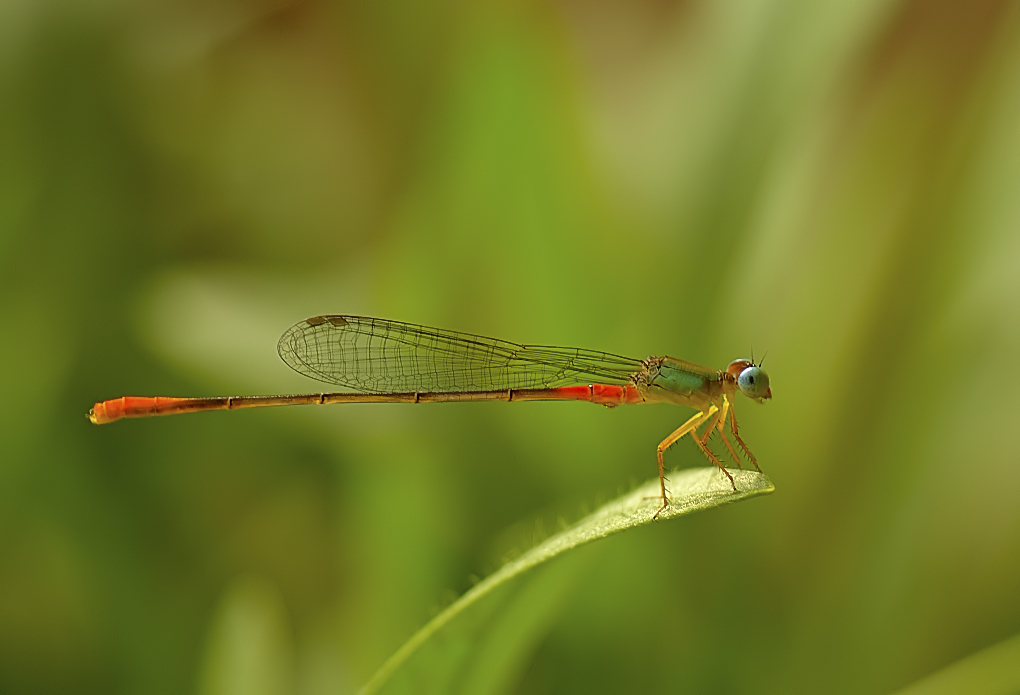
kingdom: Animalia
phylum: Arthropoda
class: Insecta
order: Odonata
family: Coenagrionidae
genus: Ceriagrion
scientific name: Ceriagrion cerinorubellum
